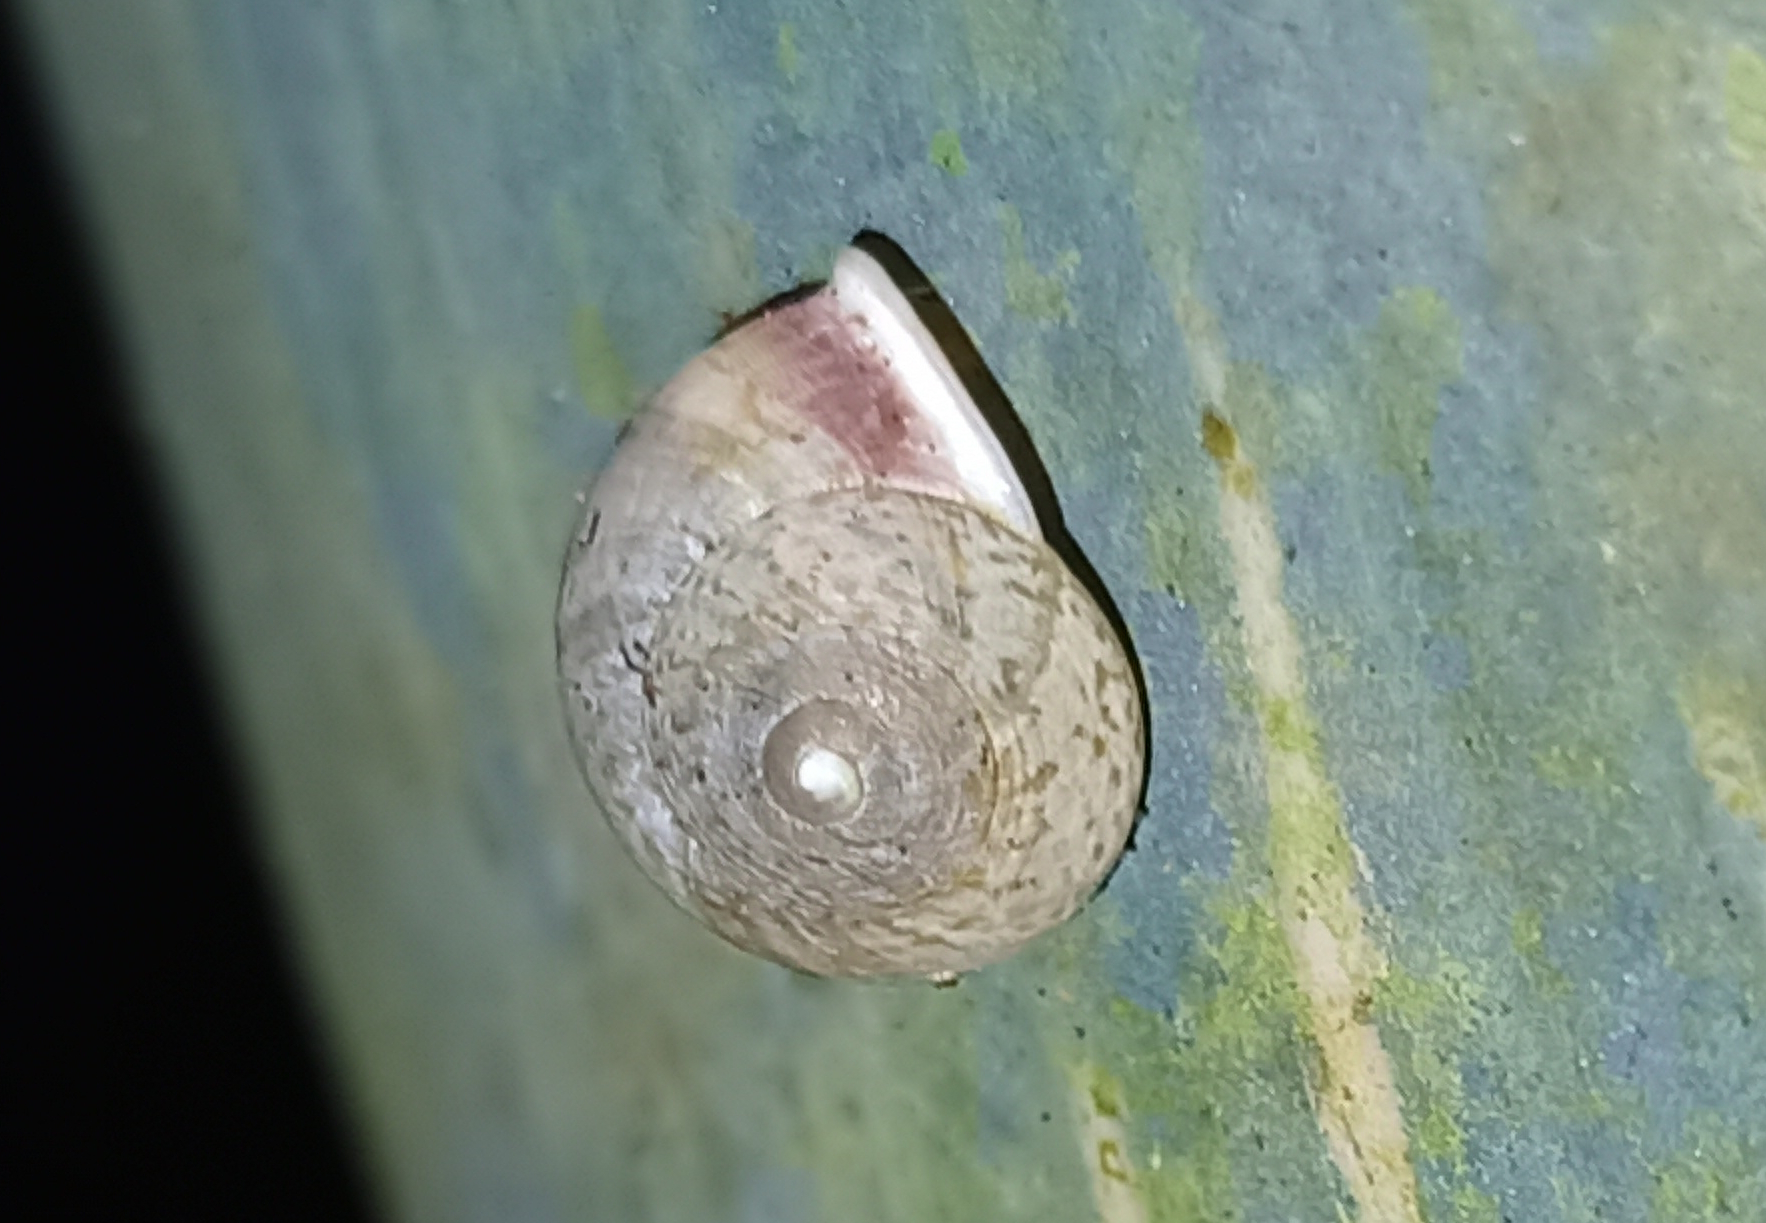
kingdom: Animalia
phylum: Mollusca
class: Gastropoda
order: Cycloneritida
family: Helicinidae
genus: Helicina
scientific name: Helicina boettgeri
